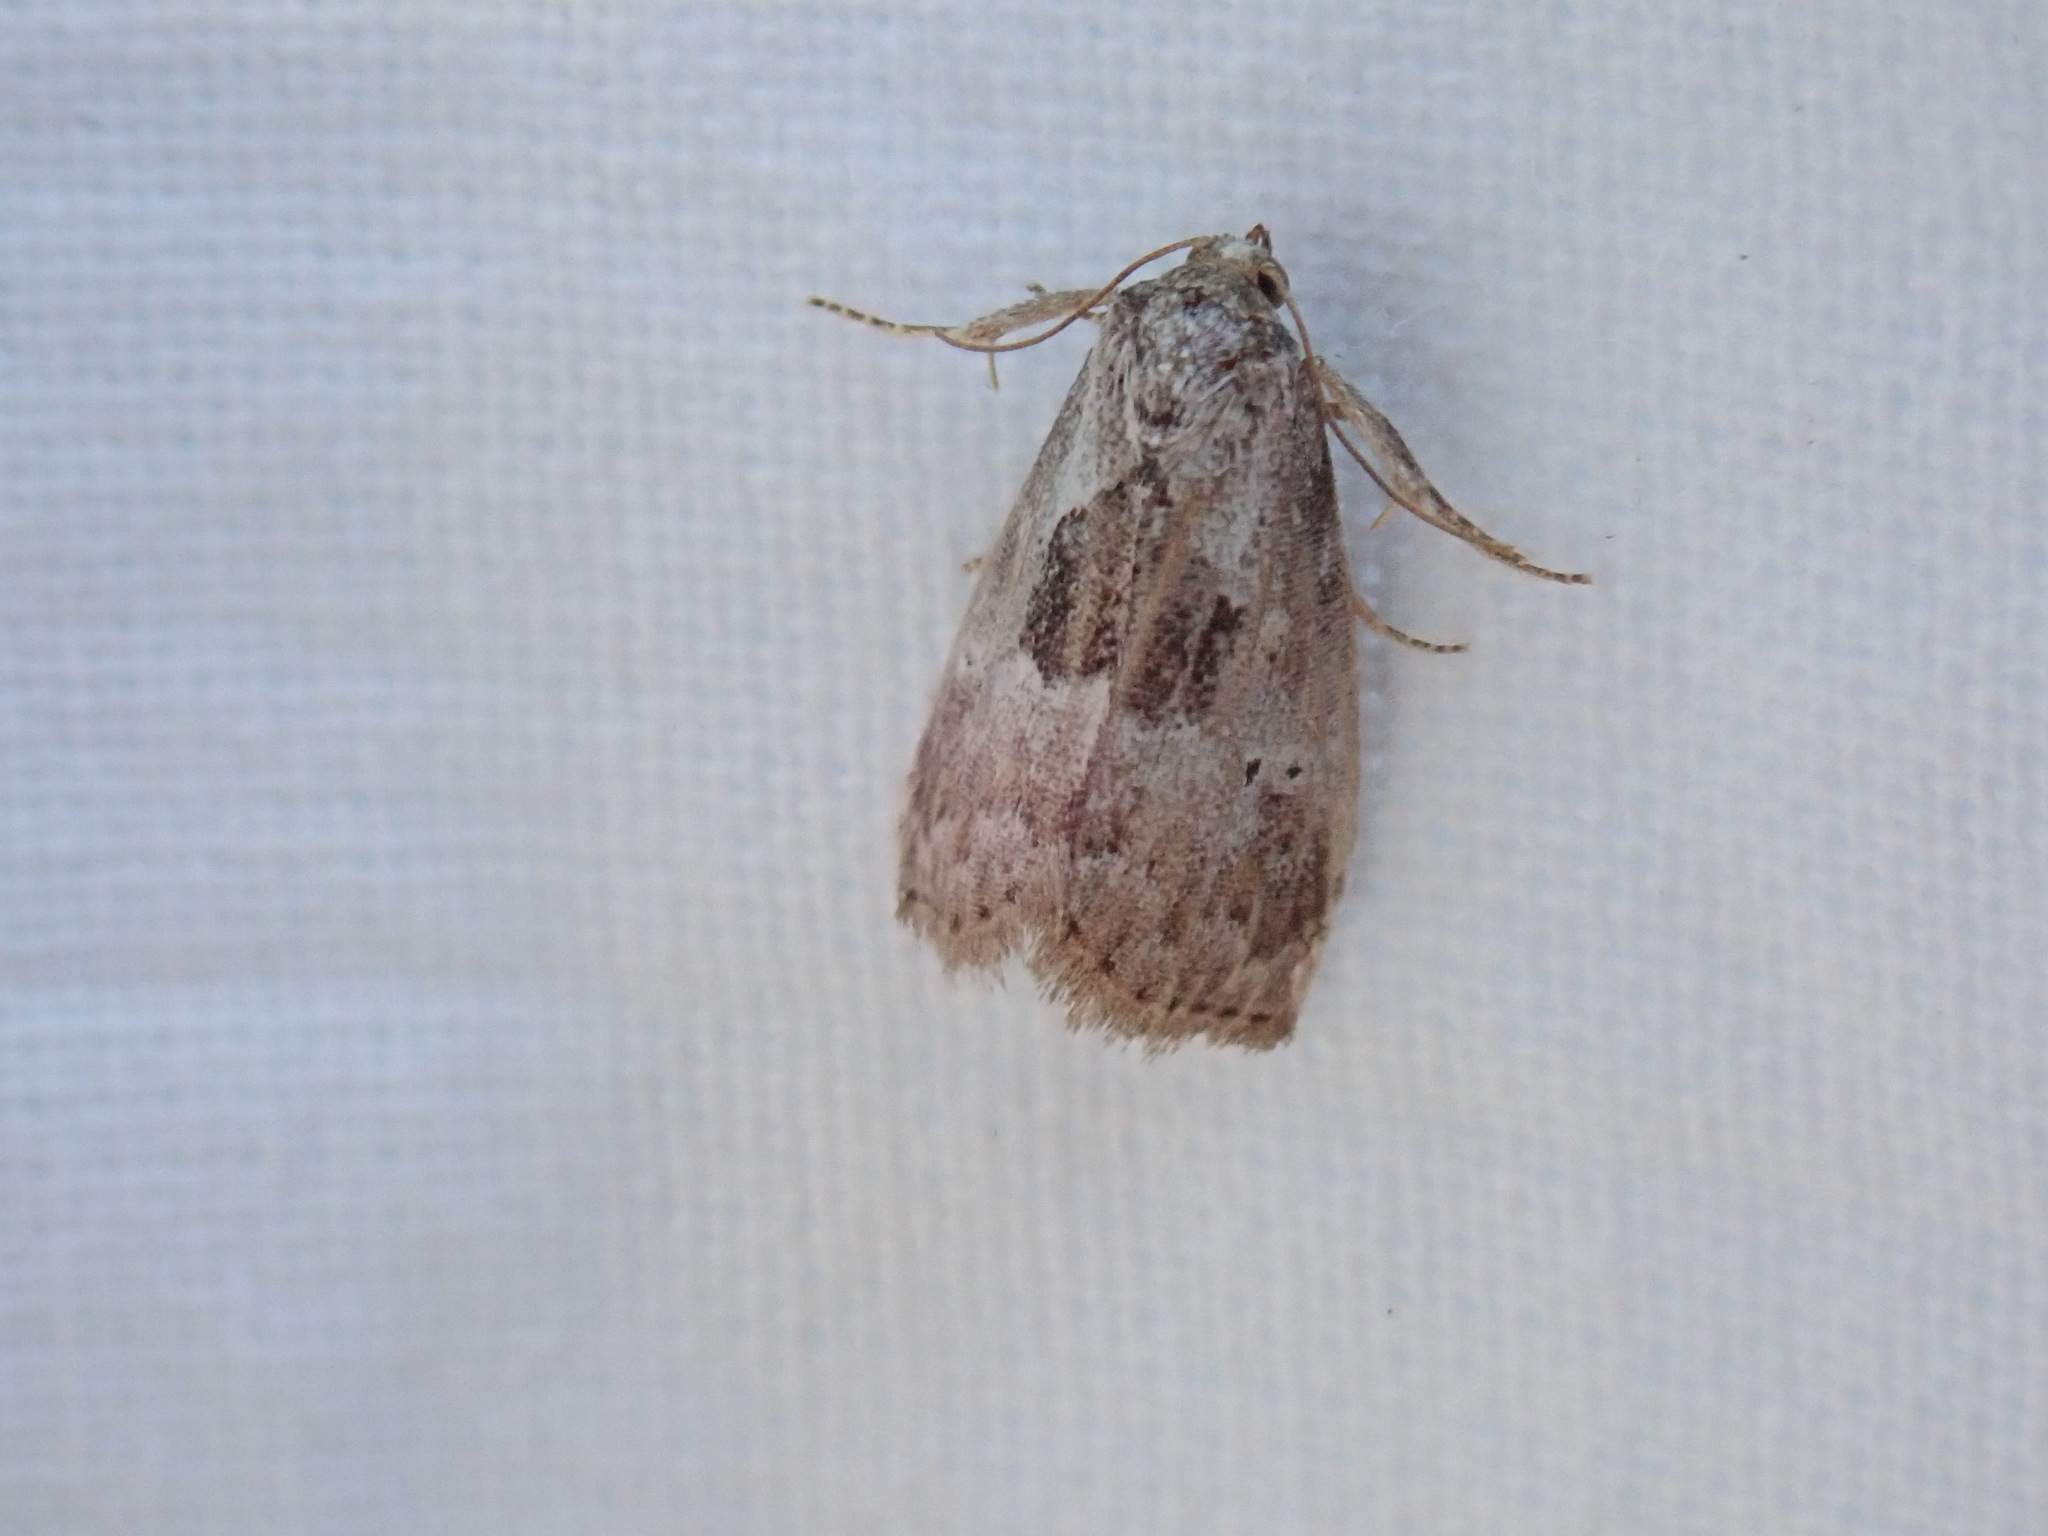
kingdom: Animalia
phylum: Arthropoda
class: Insecta
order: Lepidoptera
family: Erebidae
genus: Hyperstrotia
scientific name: Hyperstrotia secta
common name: Black-patched graylet
